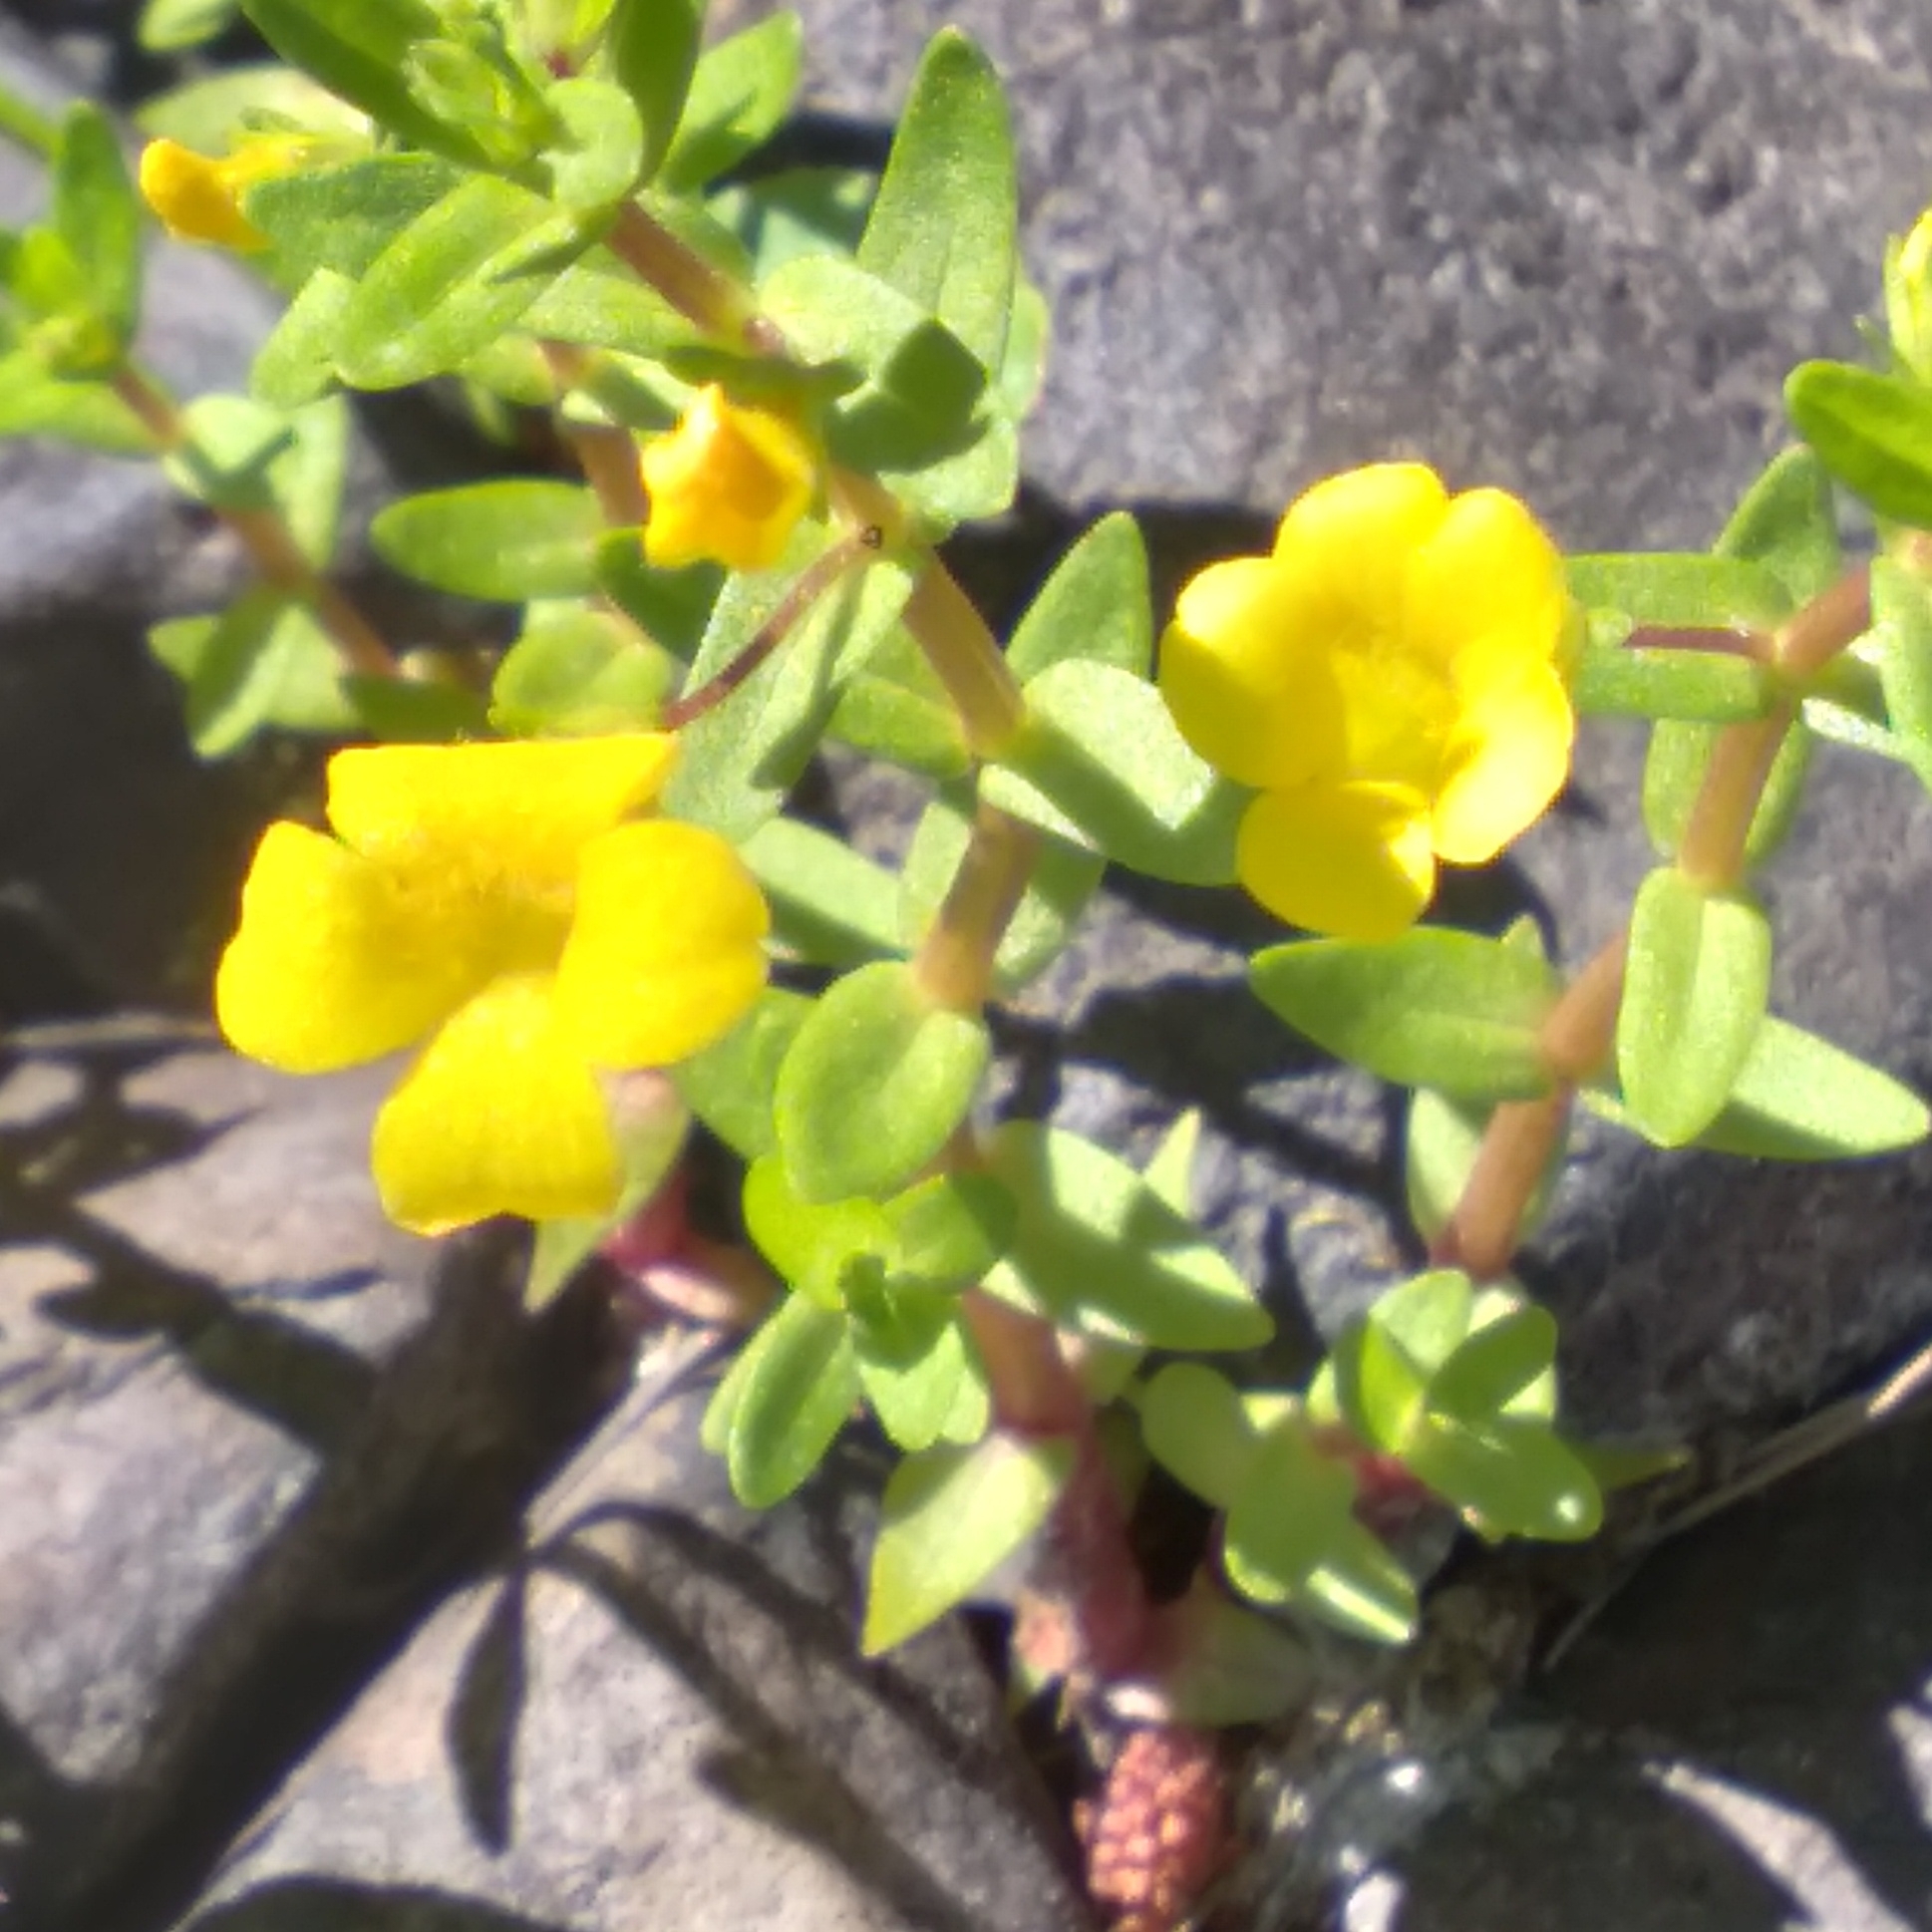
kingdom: Plantae
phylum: Tracheophyta
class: Magnoliopsida
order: Lamiales
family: Plantaginaceae
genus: Gratiola
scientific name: Gratiola lutea
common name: Golden hedge-hyssop
